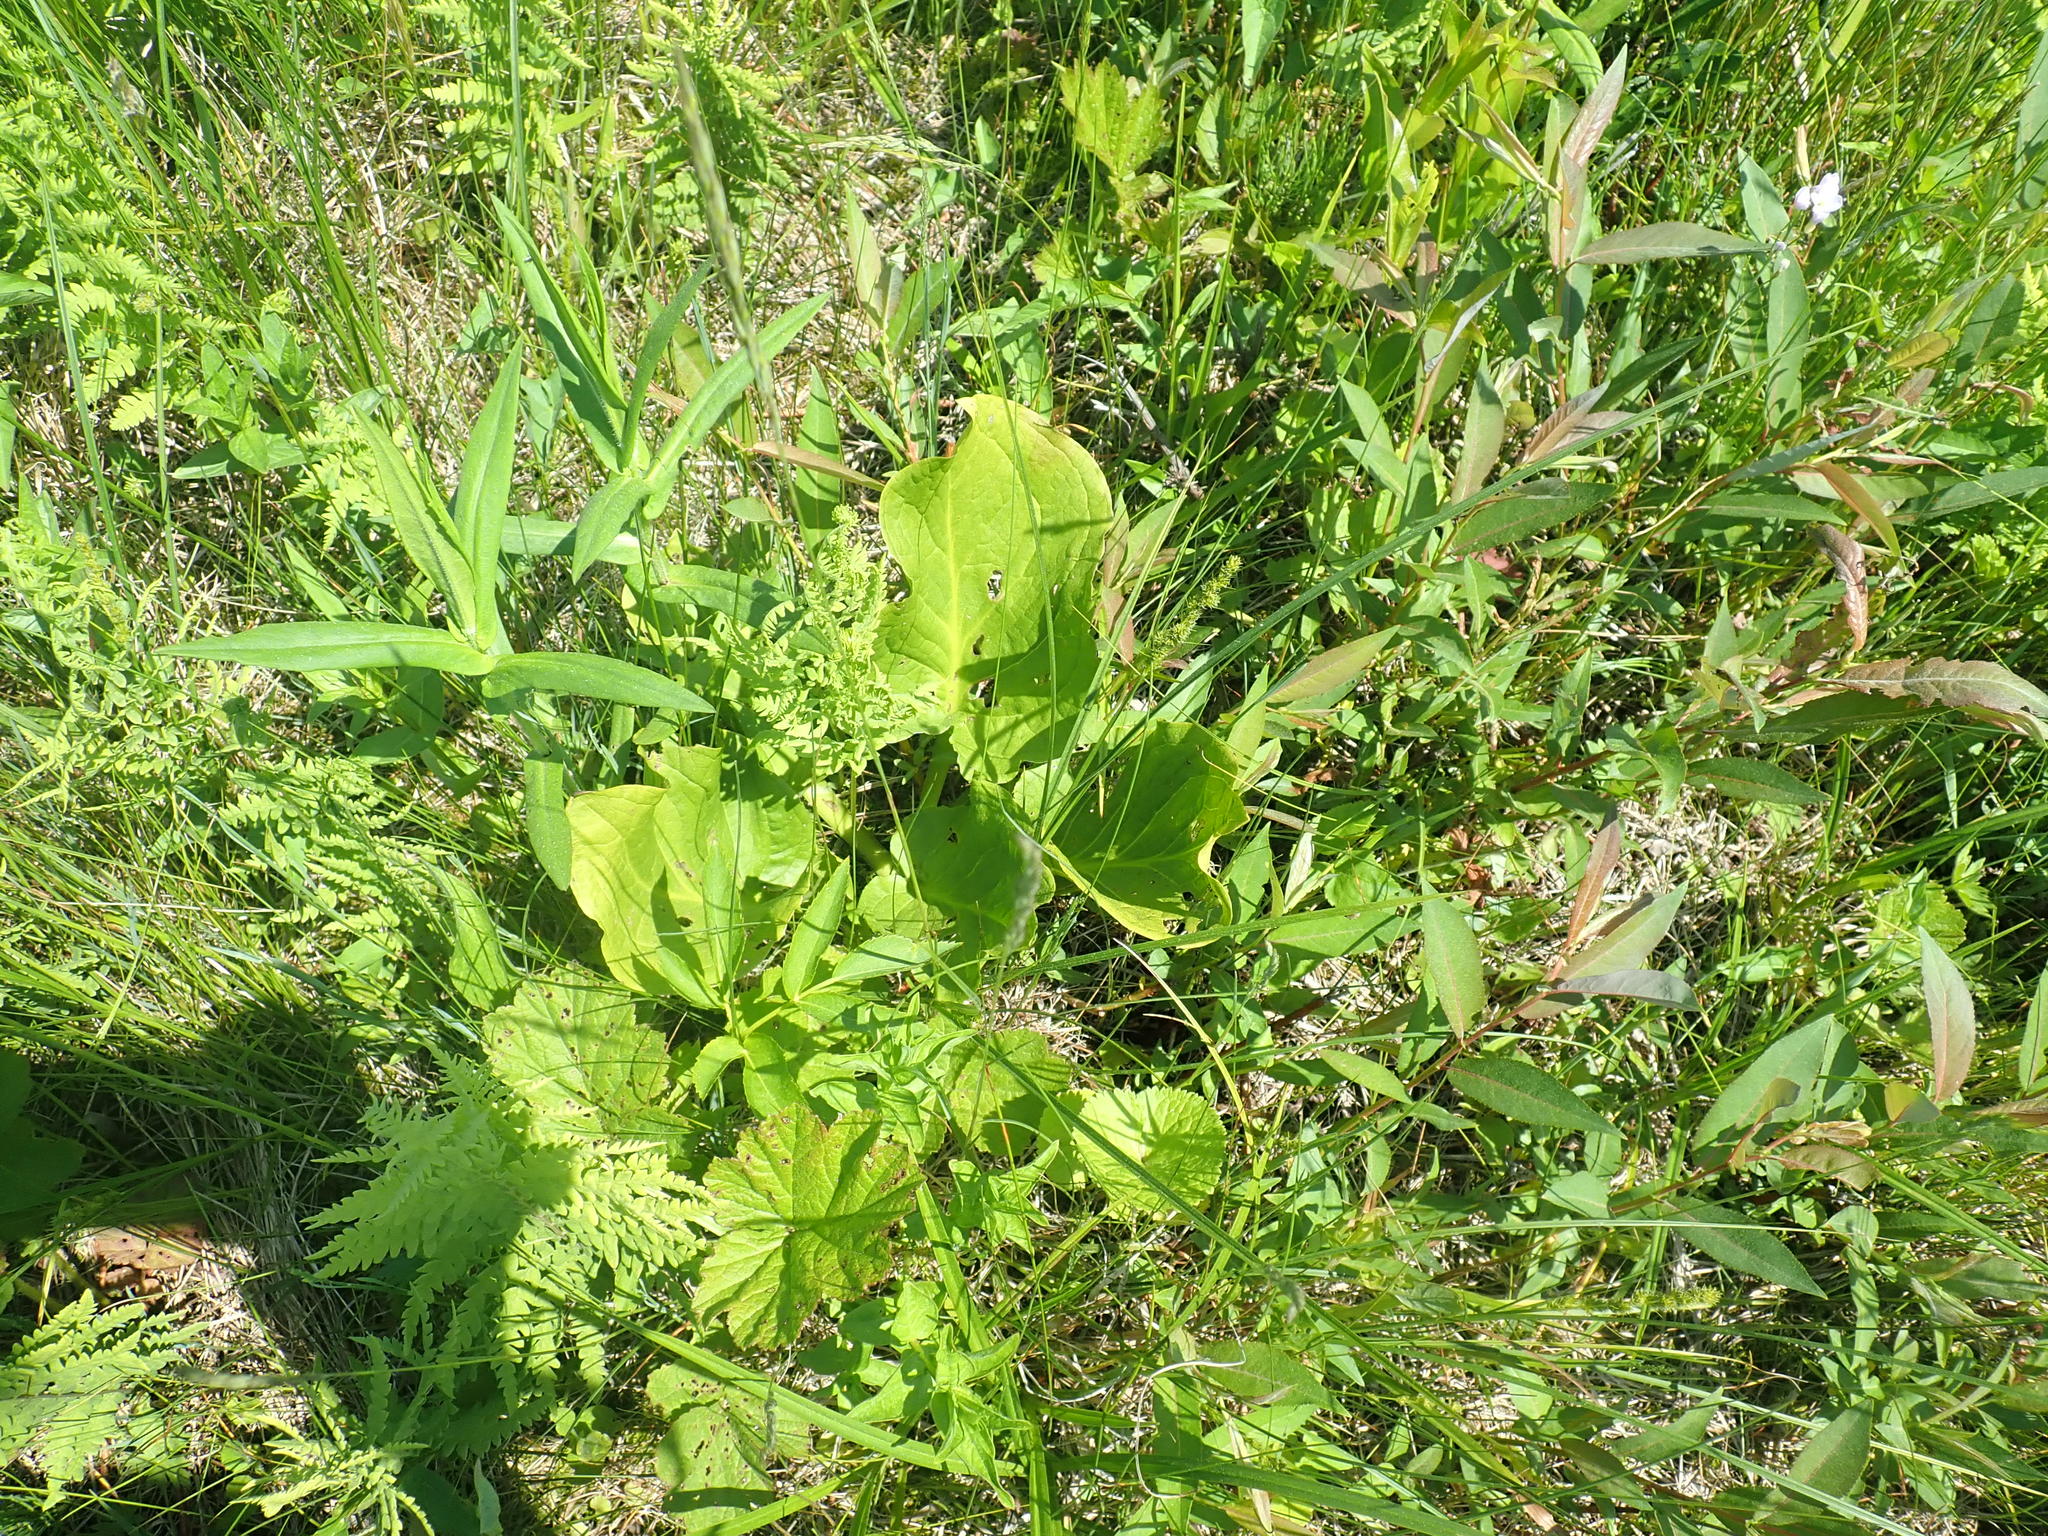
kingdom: Plantae
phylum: Tracheophyta
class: Liliopsida
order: Alismatales
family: Araceae
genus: Symplocarpus
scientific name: Symplocarpus foetidus
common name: Eastern skunk cabbage
